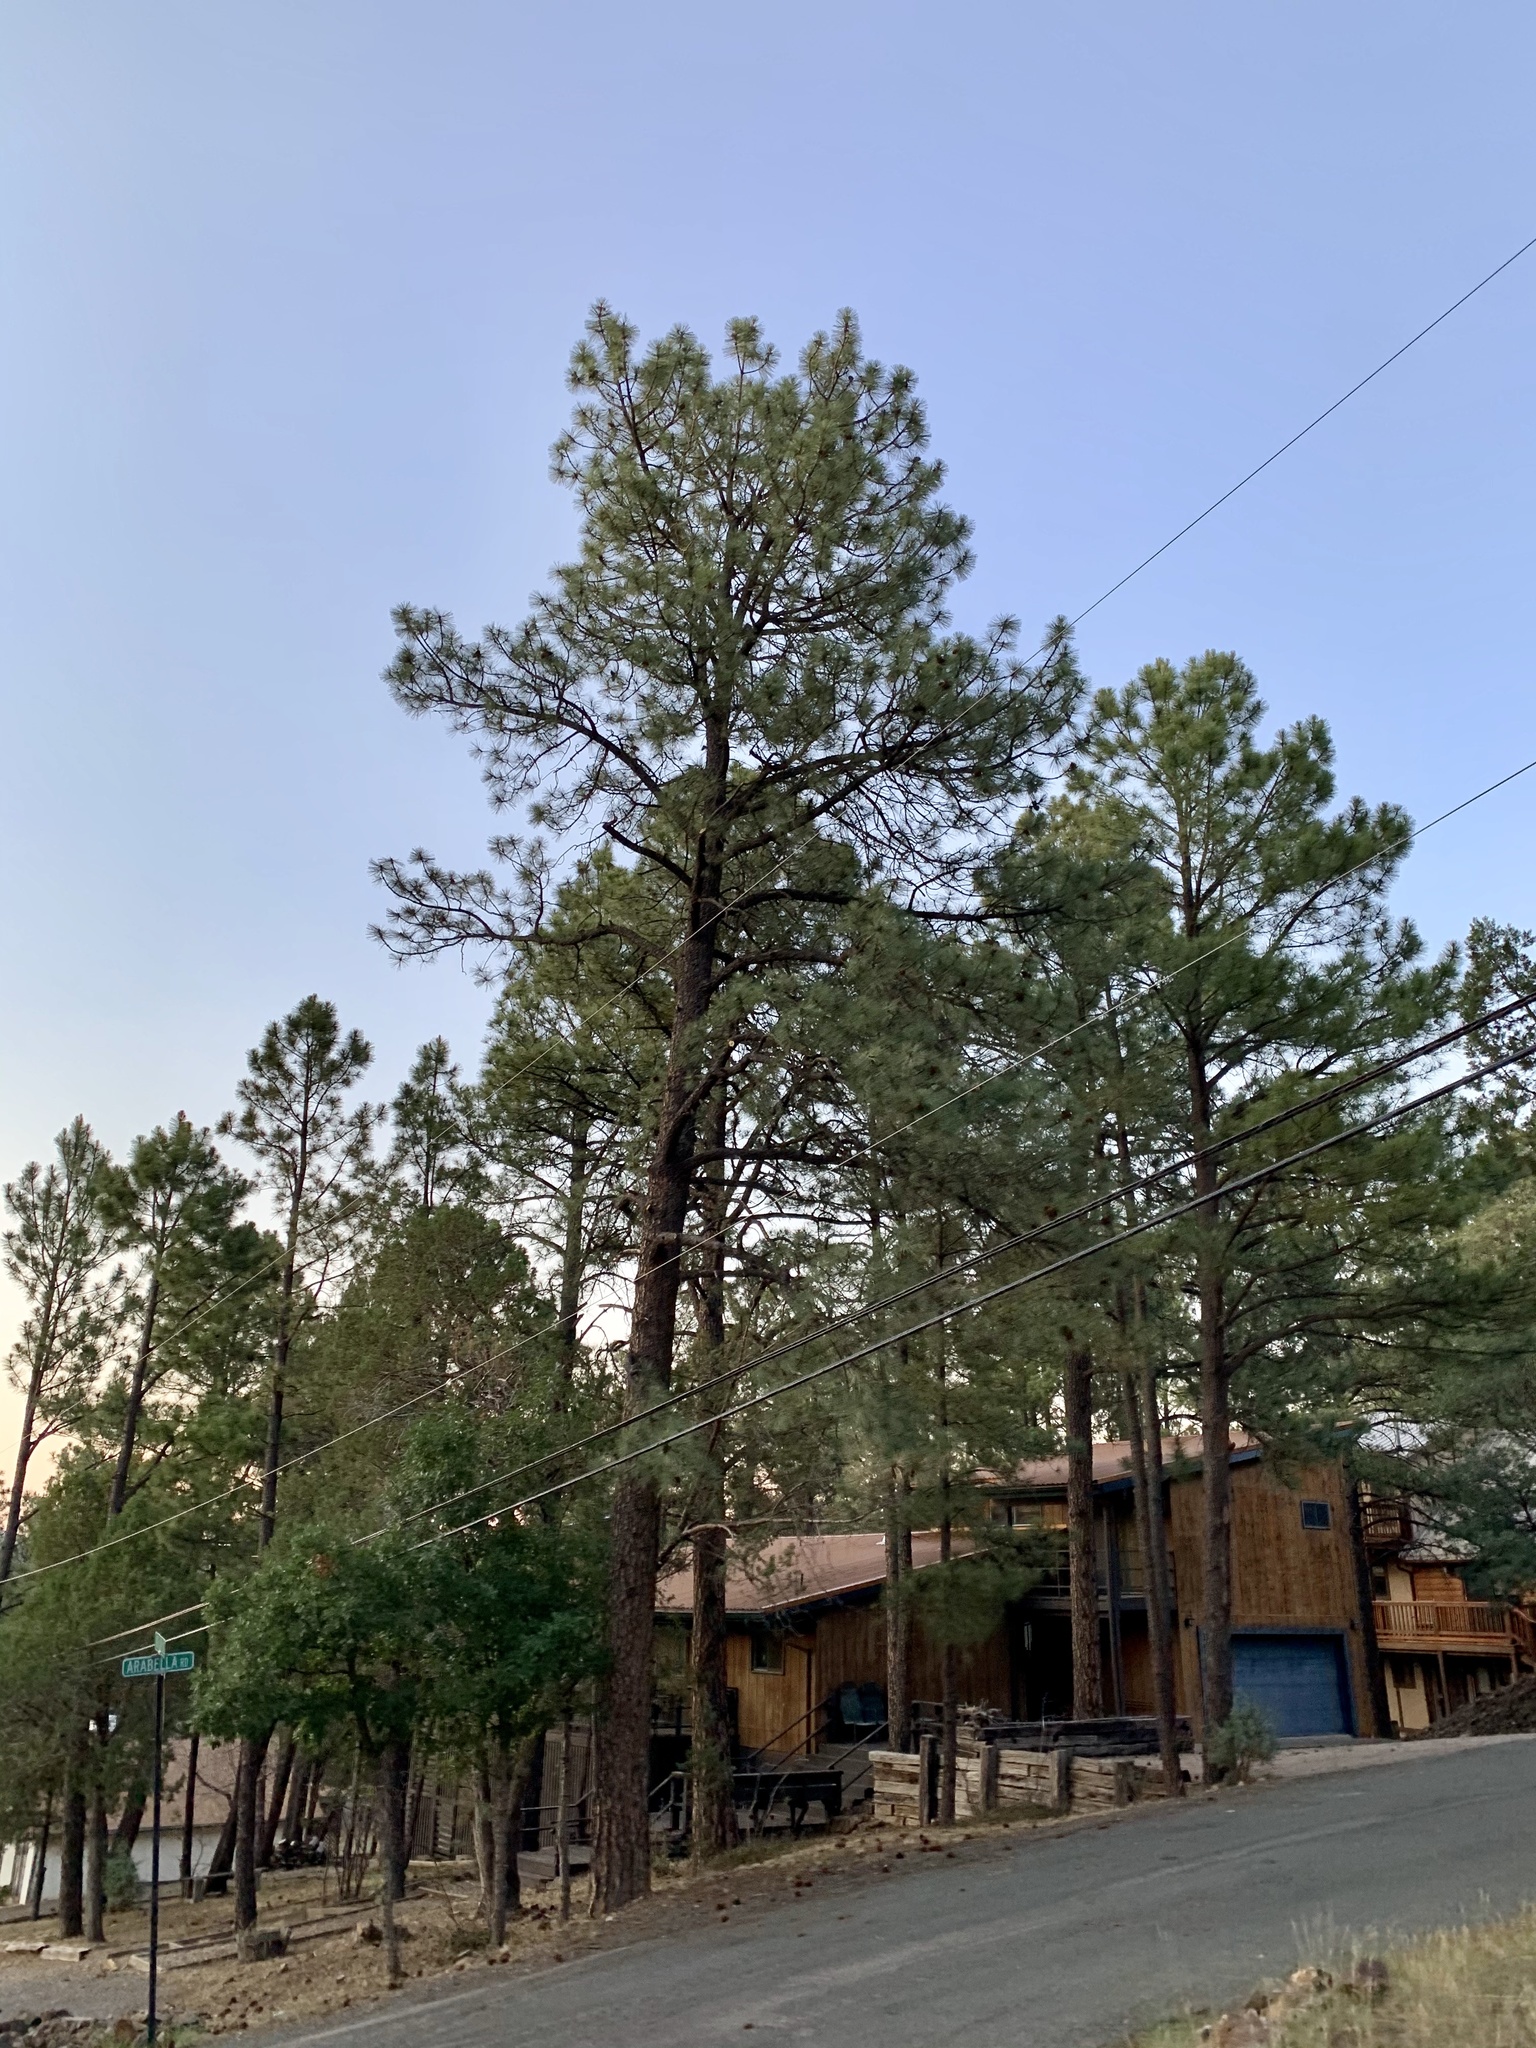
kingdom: Plantae
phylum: Tracheophyta
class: Pinopsida
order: Pinales
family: Pinaceae
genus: Pinus
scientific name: Pinus ponderosa
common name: Western yellow-pine
